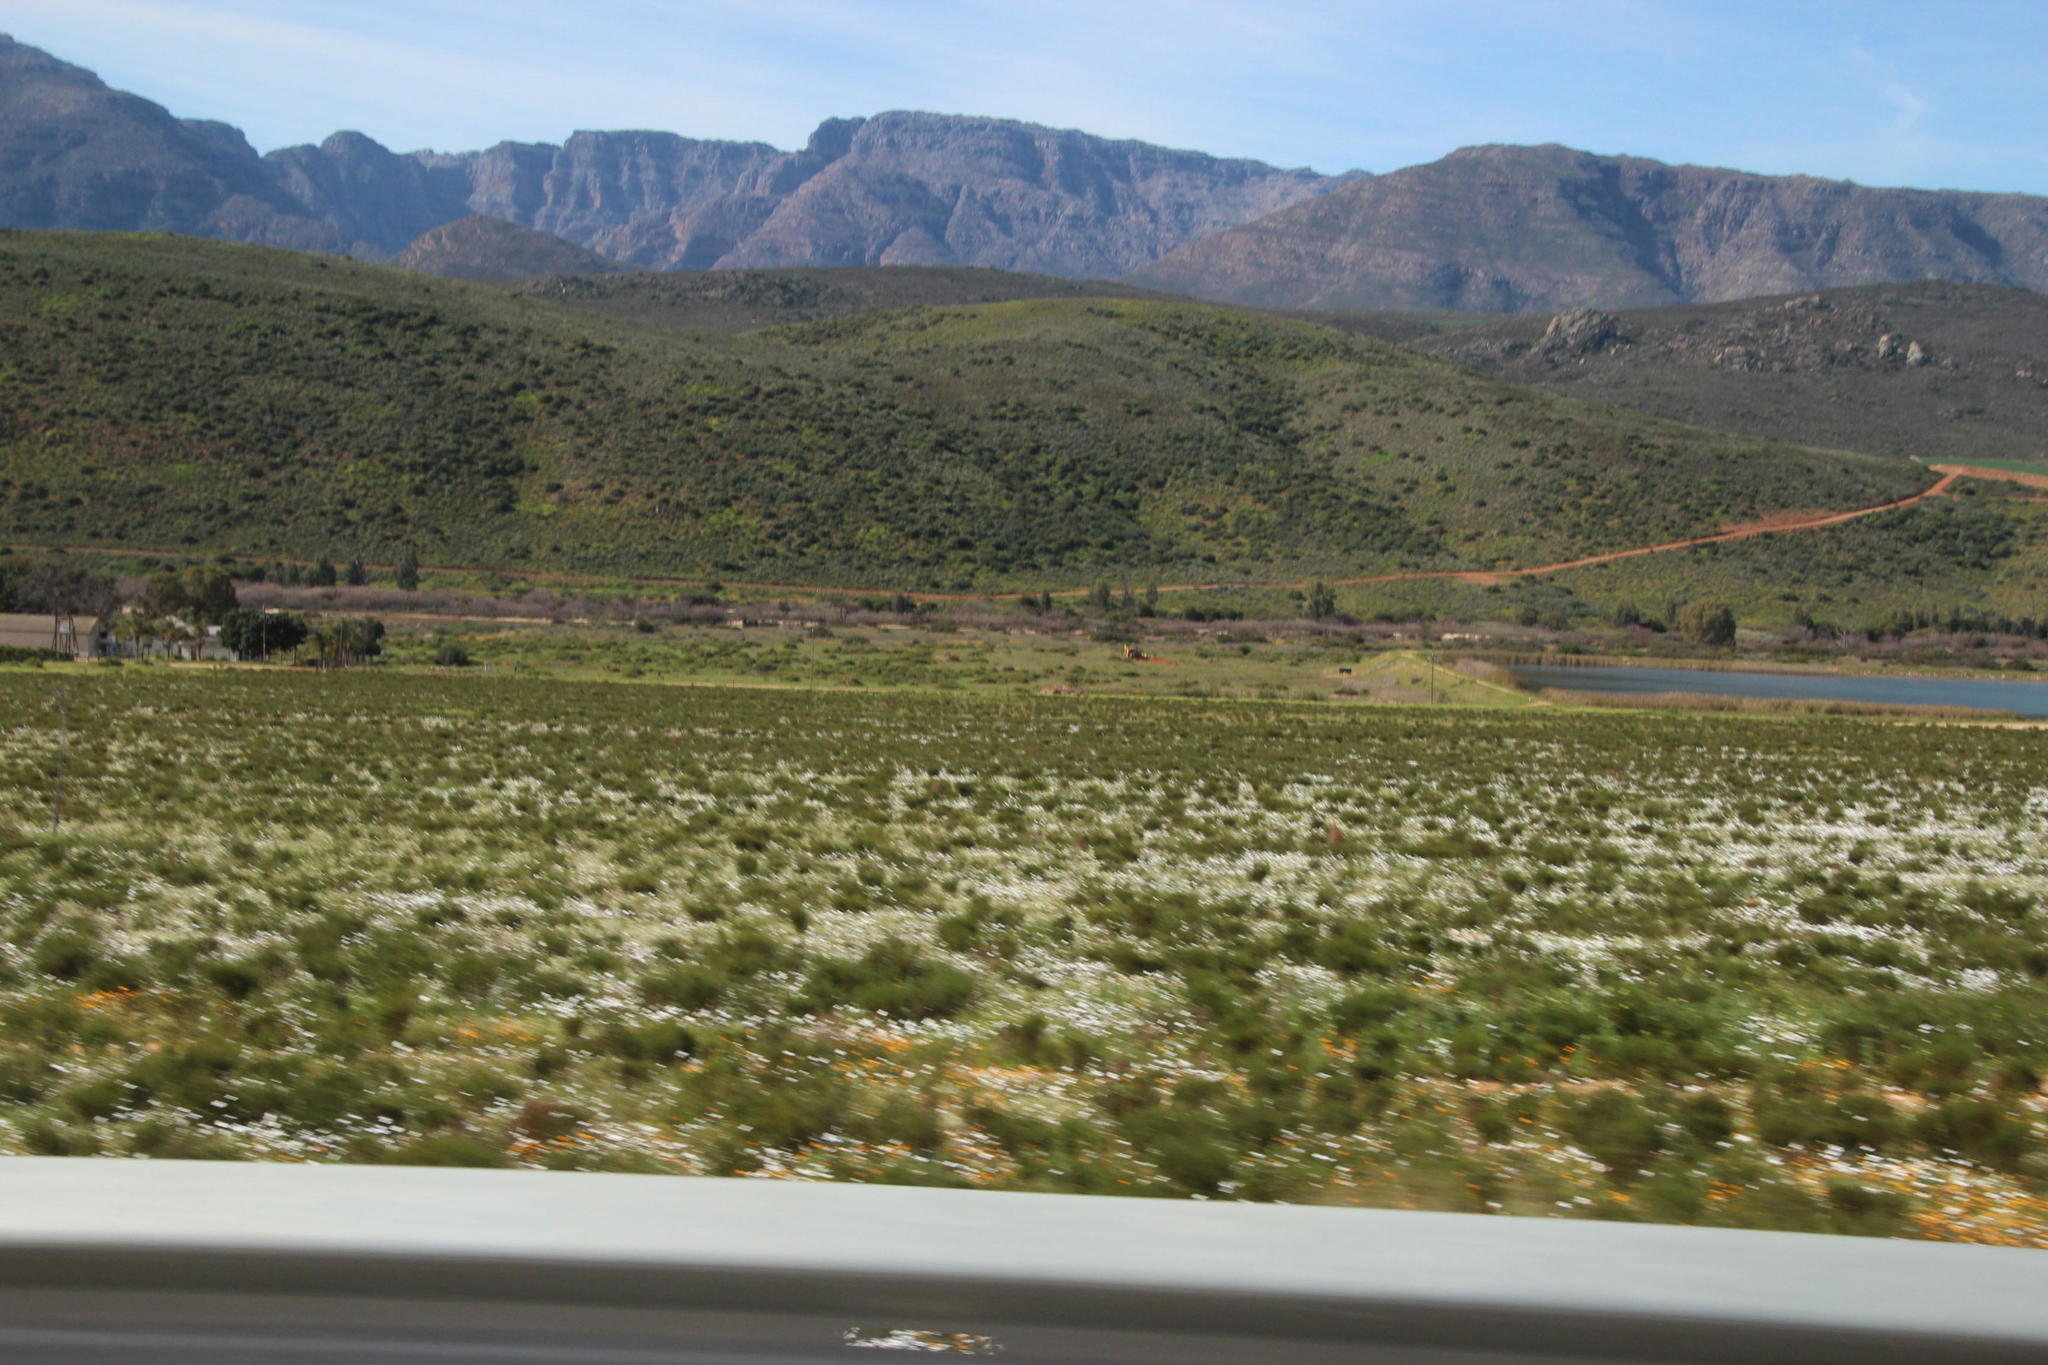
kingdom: Plantae
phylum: Tracheophyta
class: Magnoliopsida
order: Asterales
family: Asteraceae
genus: Dimorphotheca
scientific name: Dimorphotheca pluvialis
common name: Weather prophet
